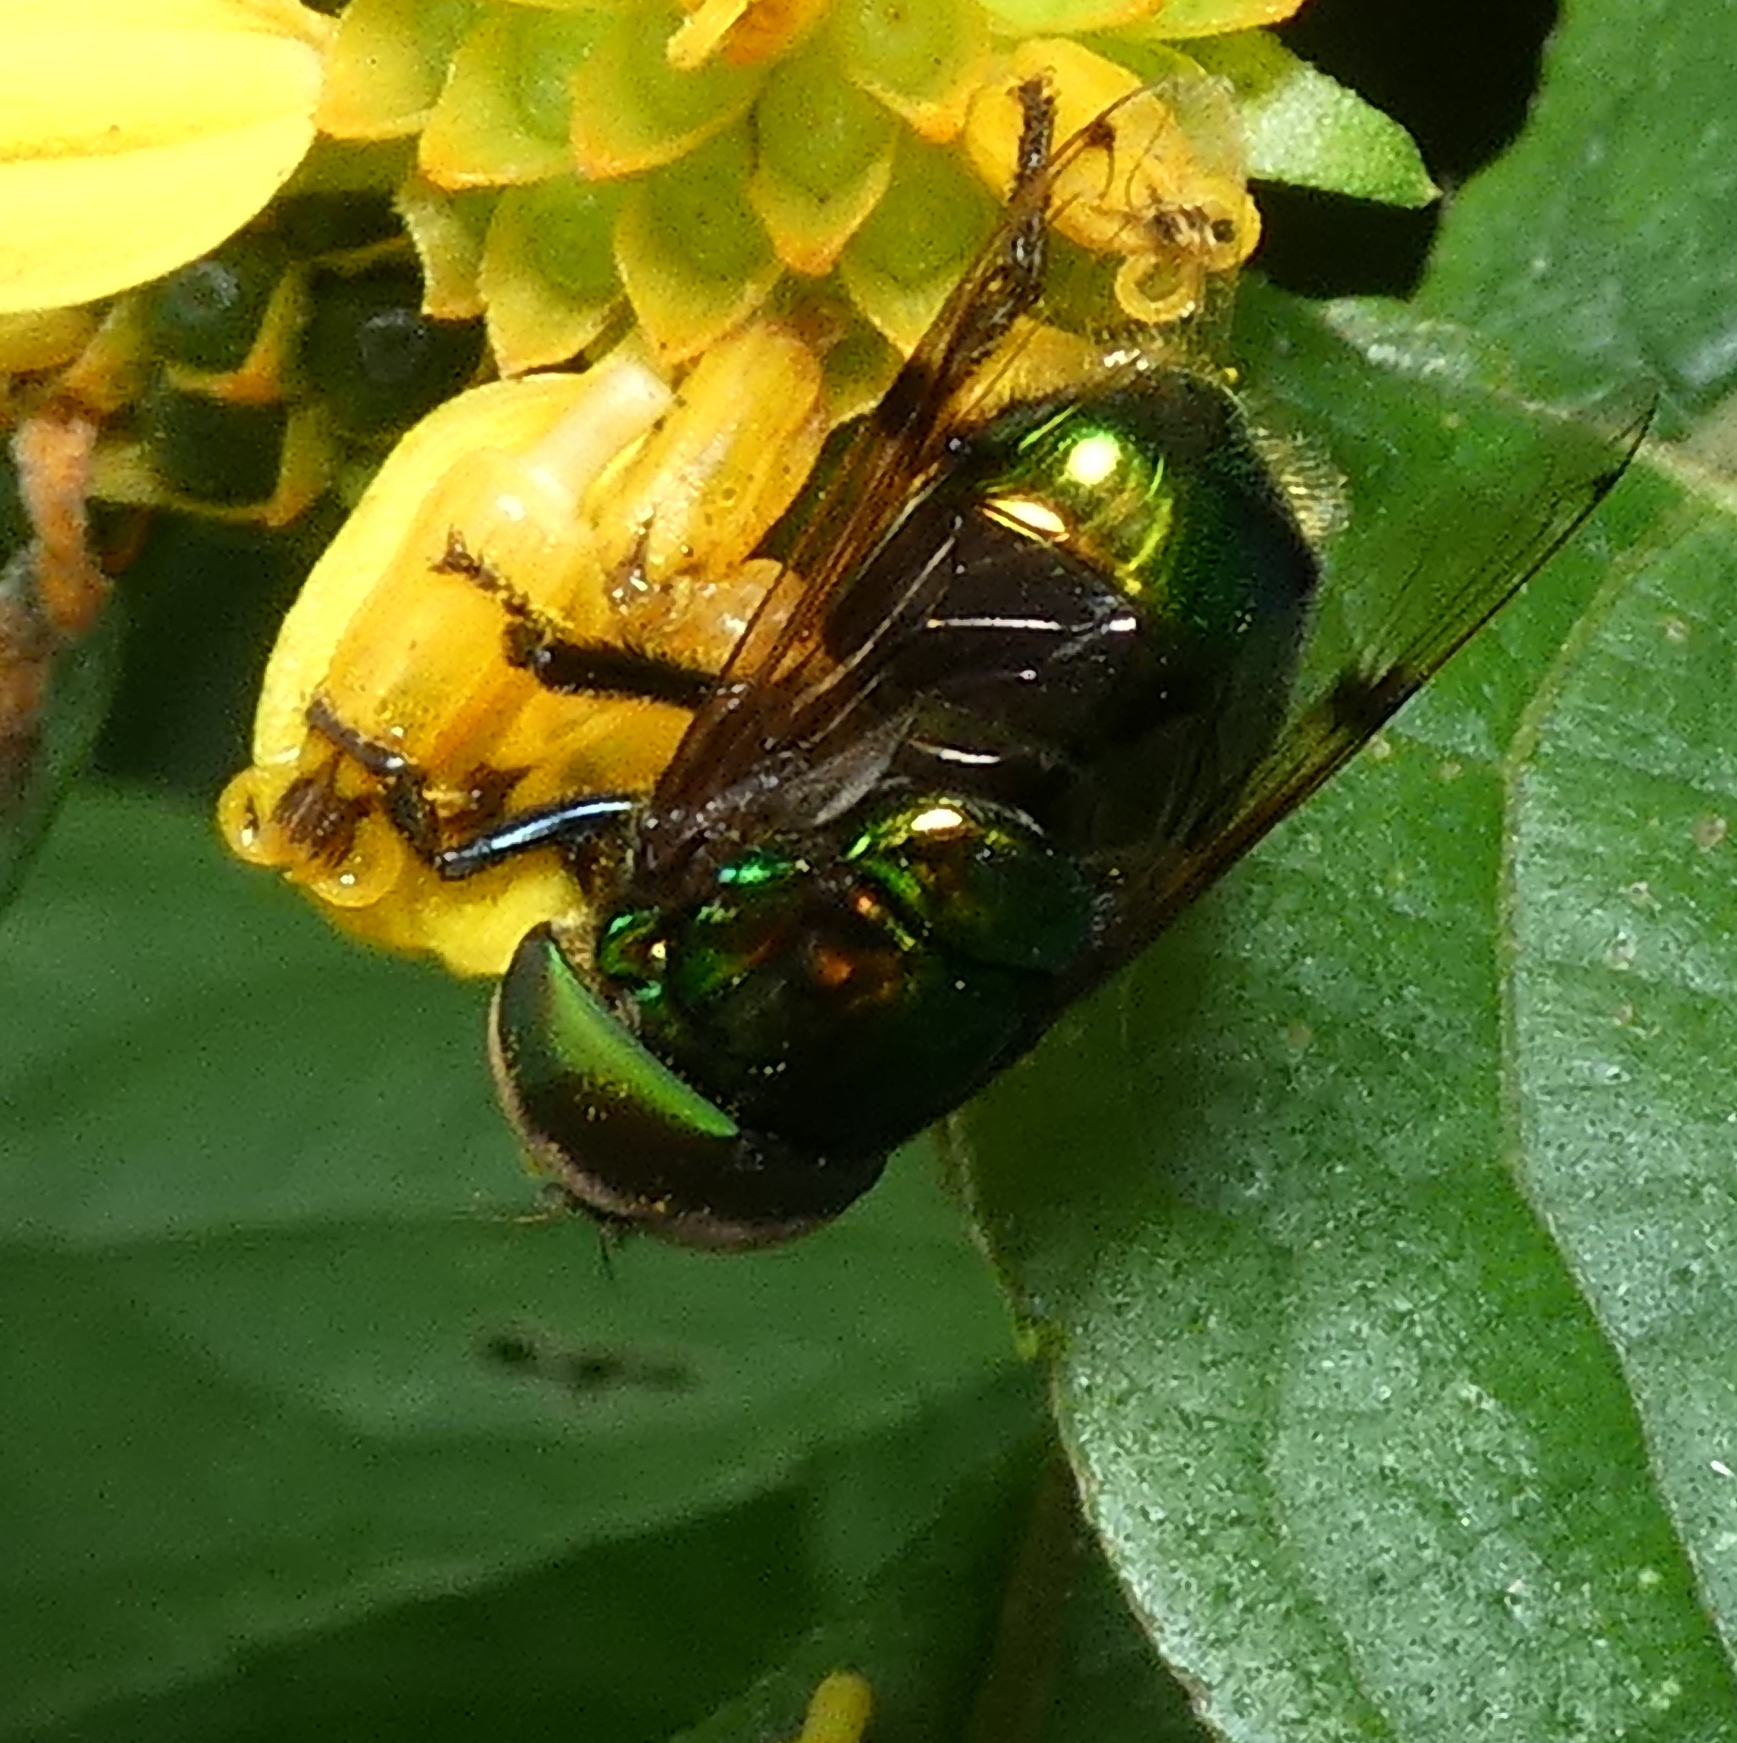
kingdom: Animalia
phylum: Arthropoda
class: Insecta
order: Diptera
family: Syrphidae
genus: Ornidia
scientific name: Ornidia obesa
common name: Syrphid fly
